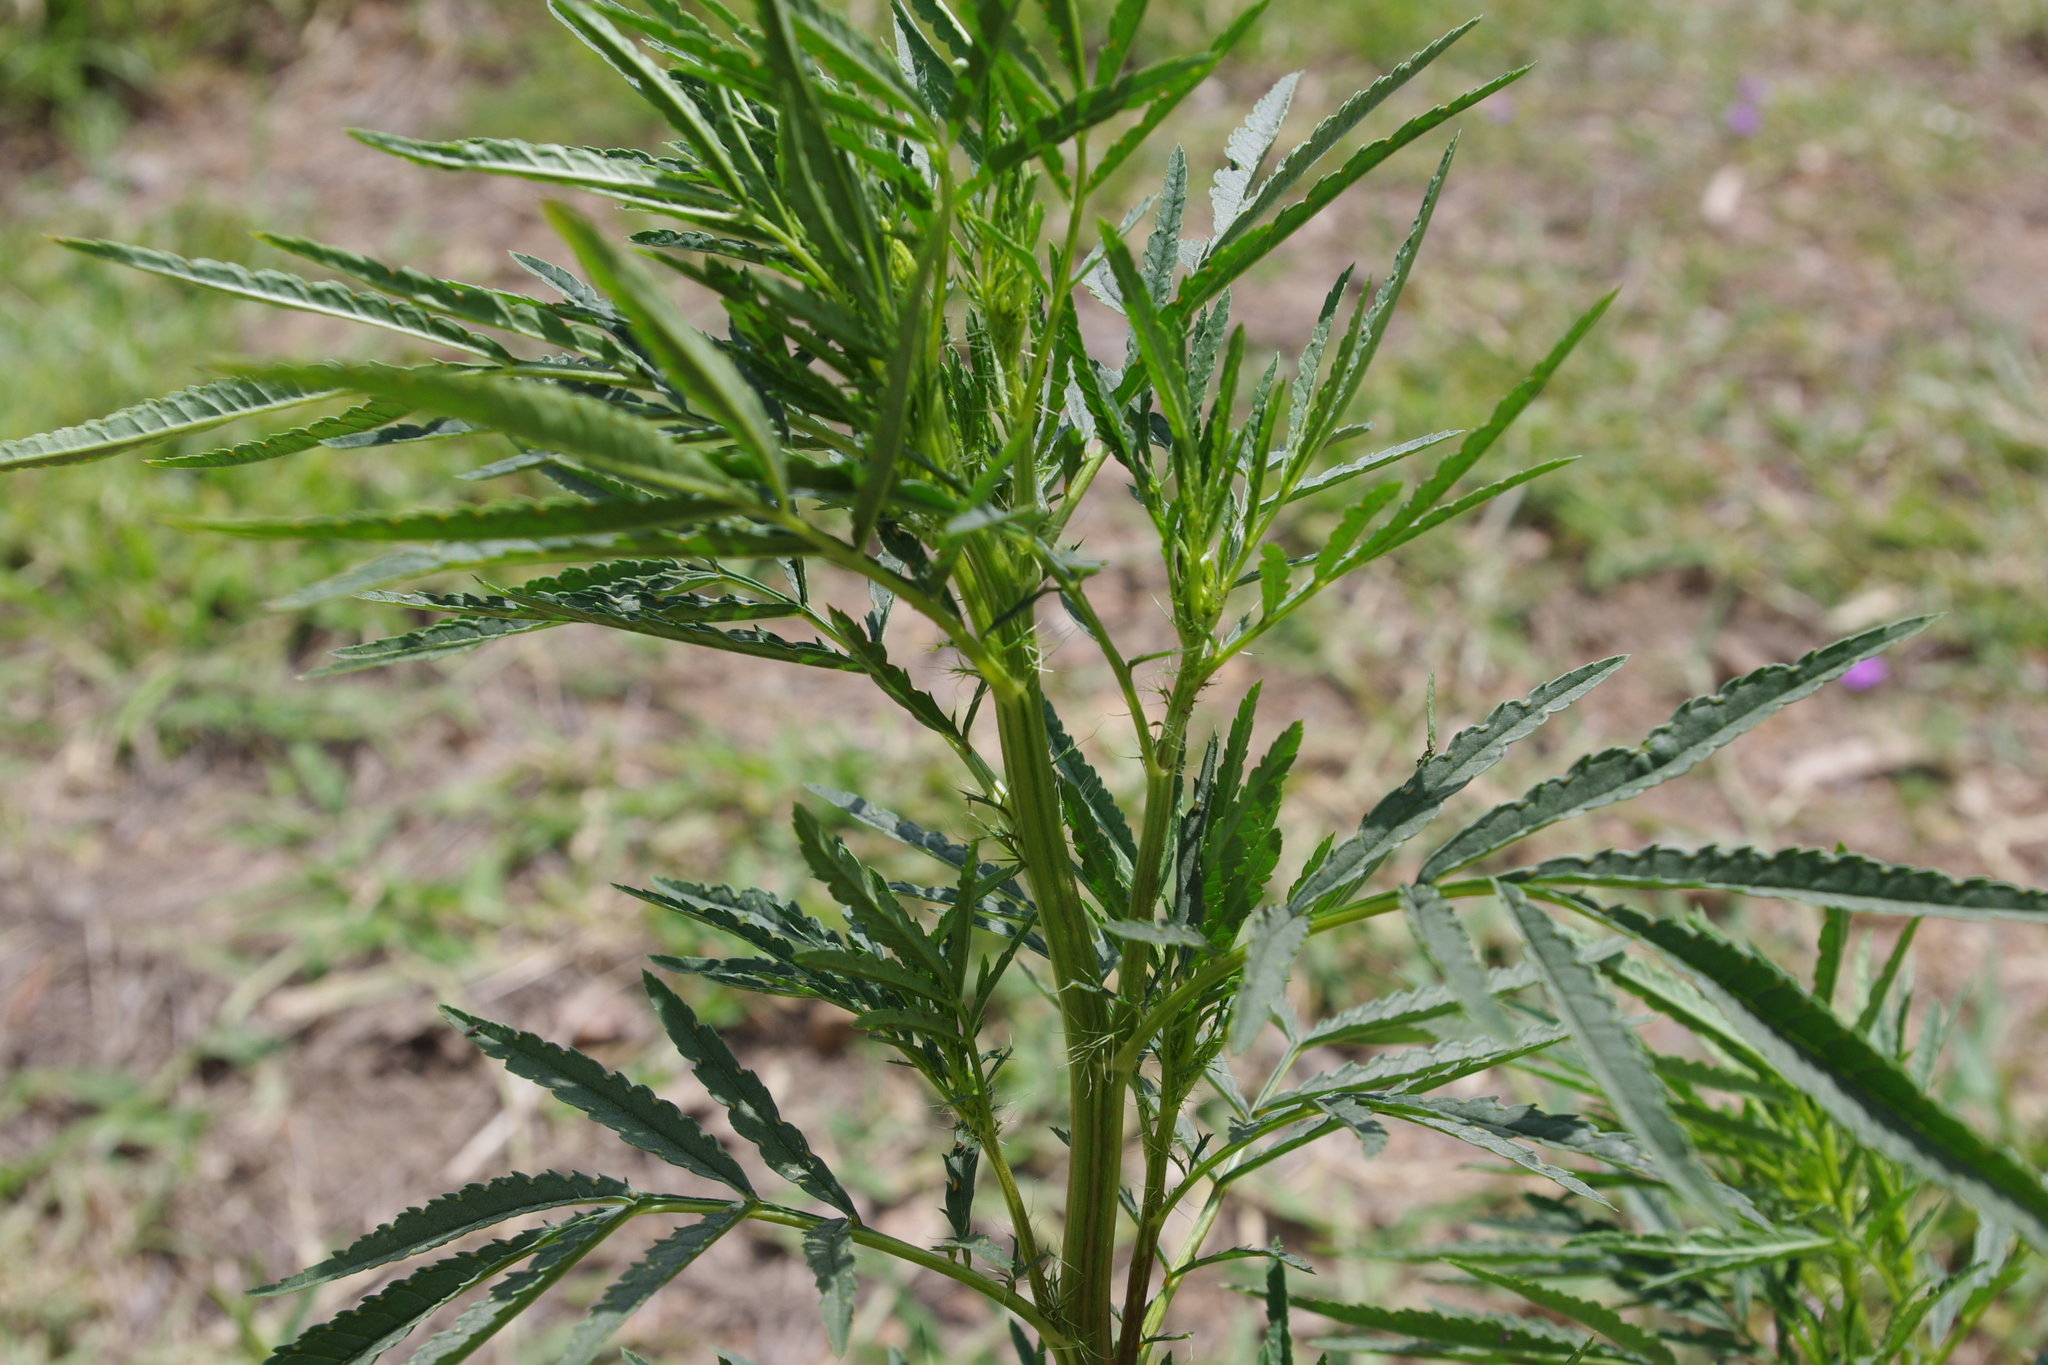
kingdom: Plantae
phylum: Tracheophyta
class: Magnoliopsida
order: Asterales
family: Asteraceae
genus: Tagetes
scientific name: Tagetes minuta
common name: Muster john henry
